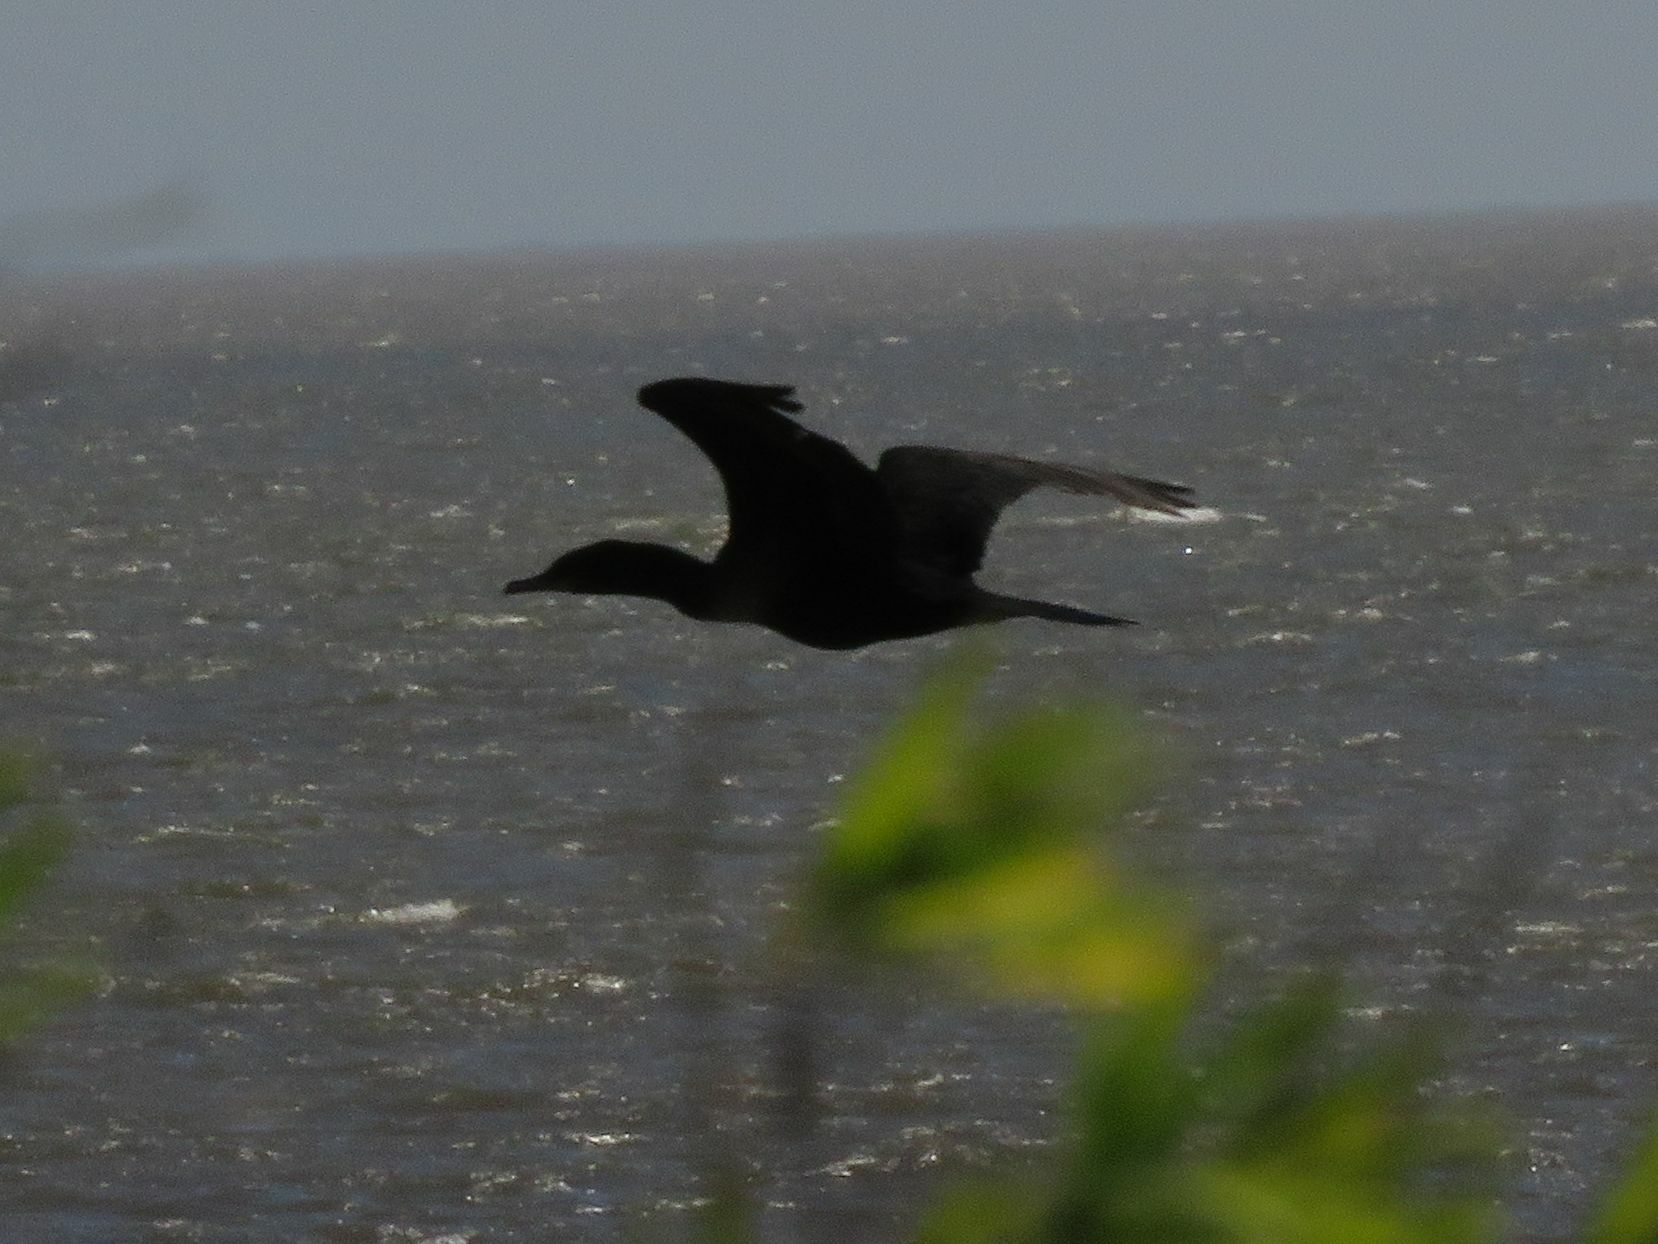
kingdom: Animalia
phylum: Chordata
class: Aves
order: Suliformes
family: Phalacrocoracidae
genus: Phalacrocorax
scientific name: Phalacrocorax brasilianus
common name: Neotropic cormorant
